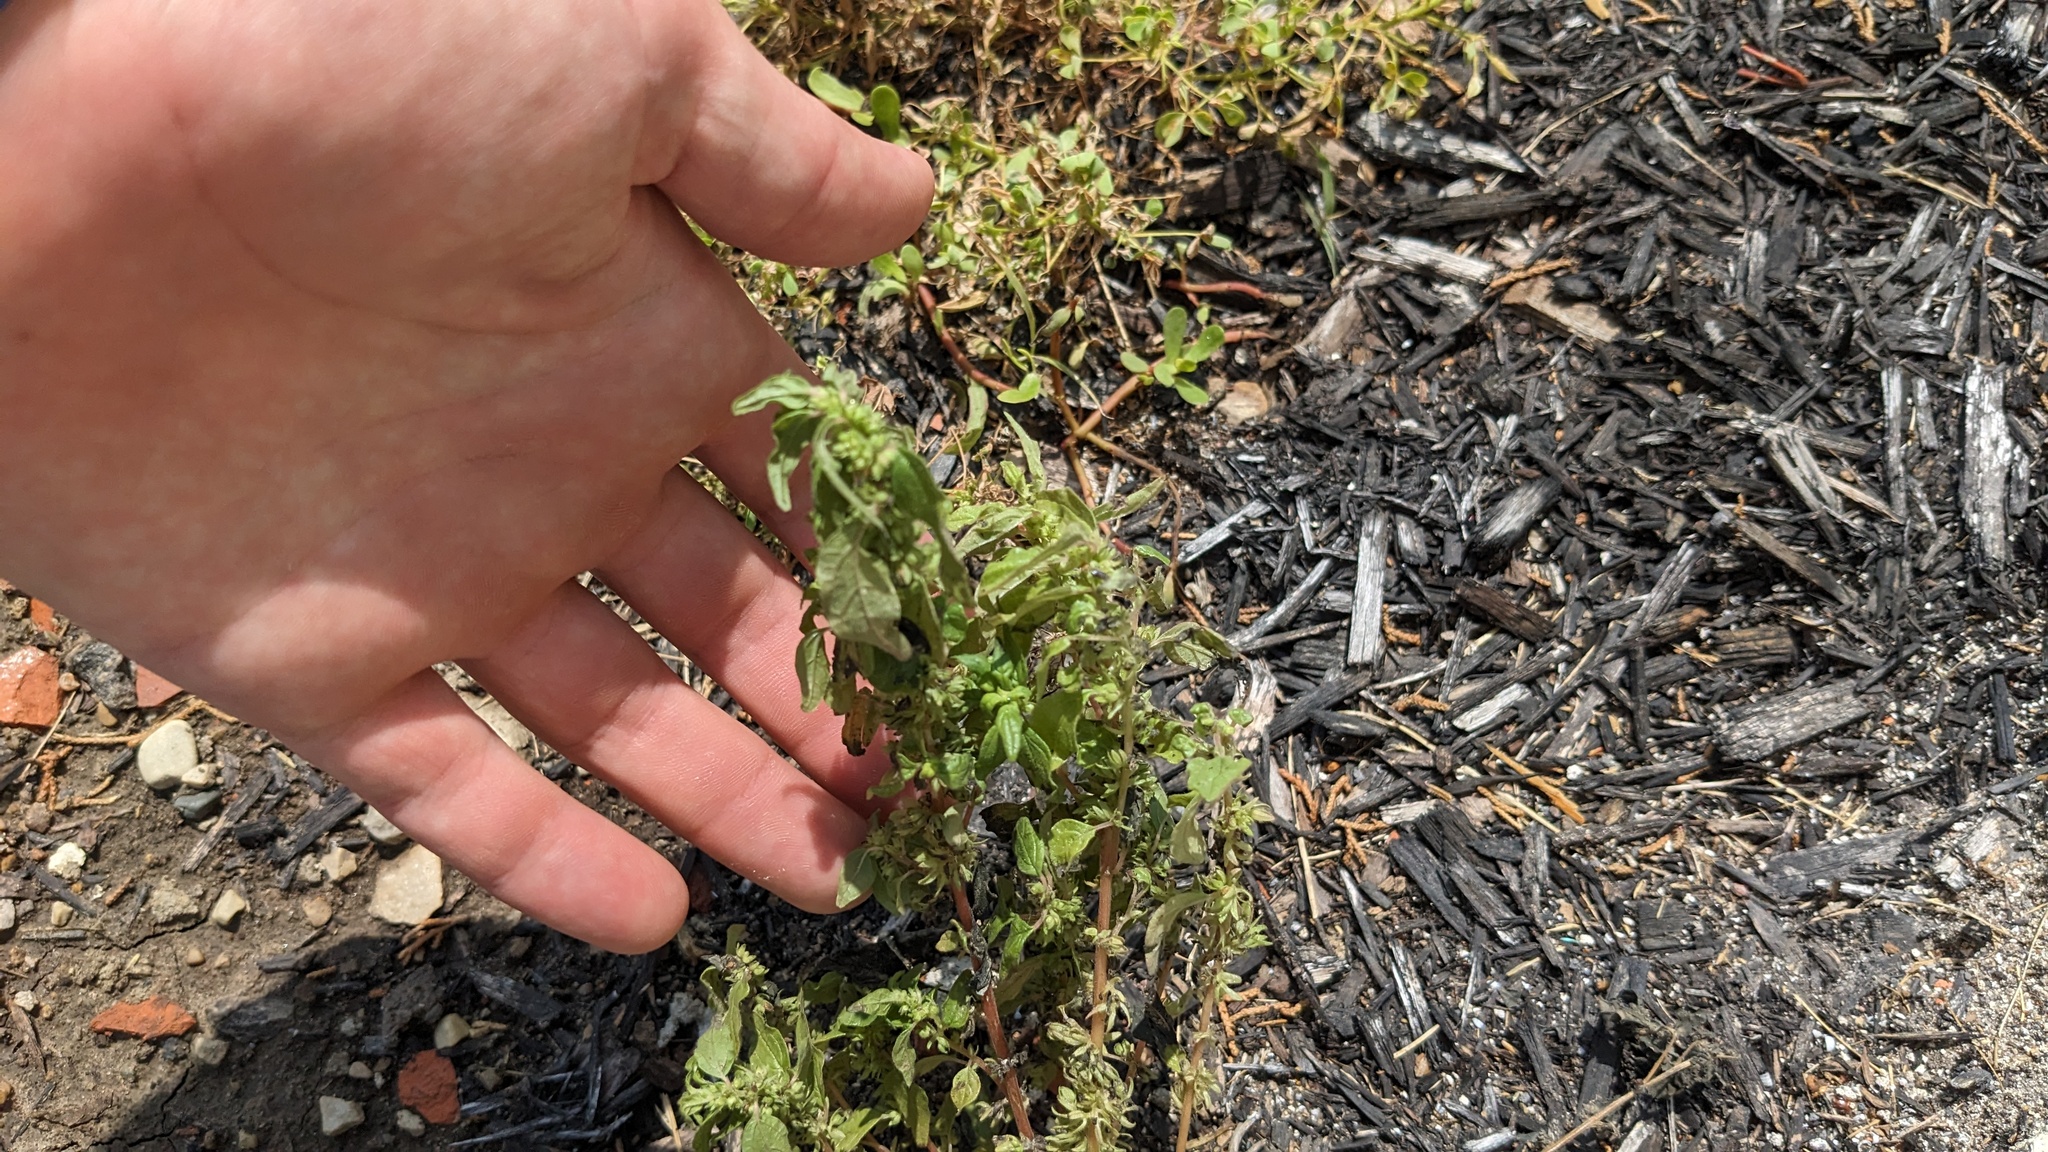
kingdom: Plantae
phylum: Tracheophyta
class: Magnoliopsida
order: Rosales
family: Urticaceae
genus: Parietaria
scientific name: Parietaria pensylvanica
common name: Pennsylvania pellitory
